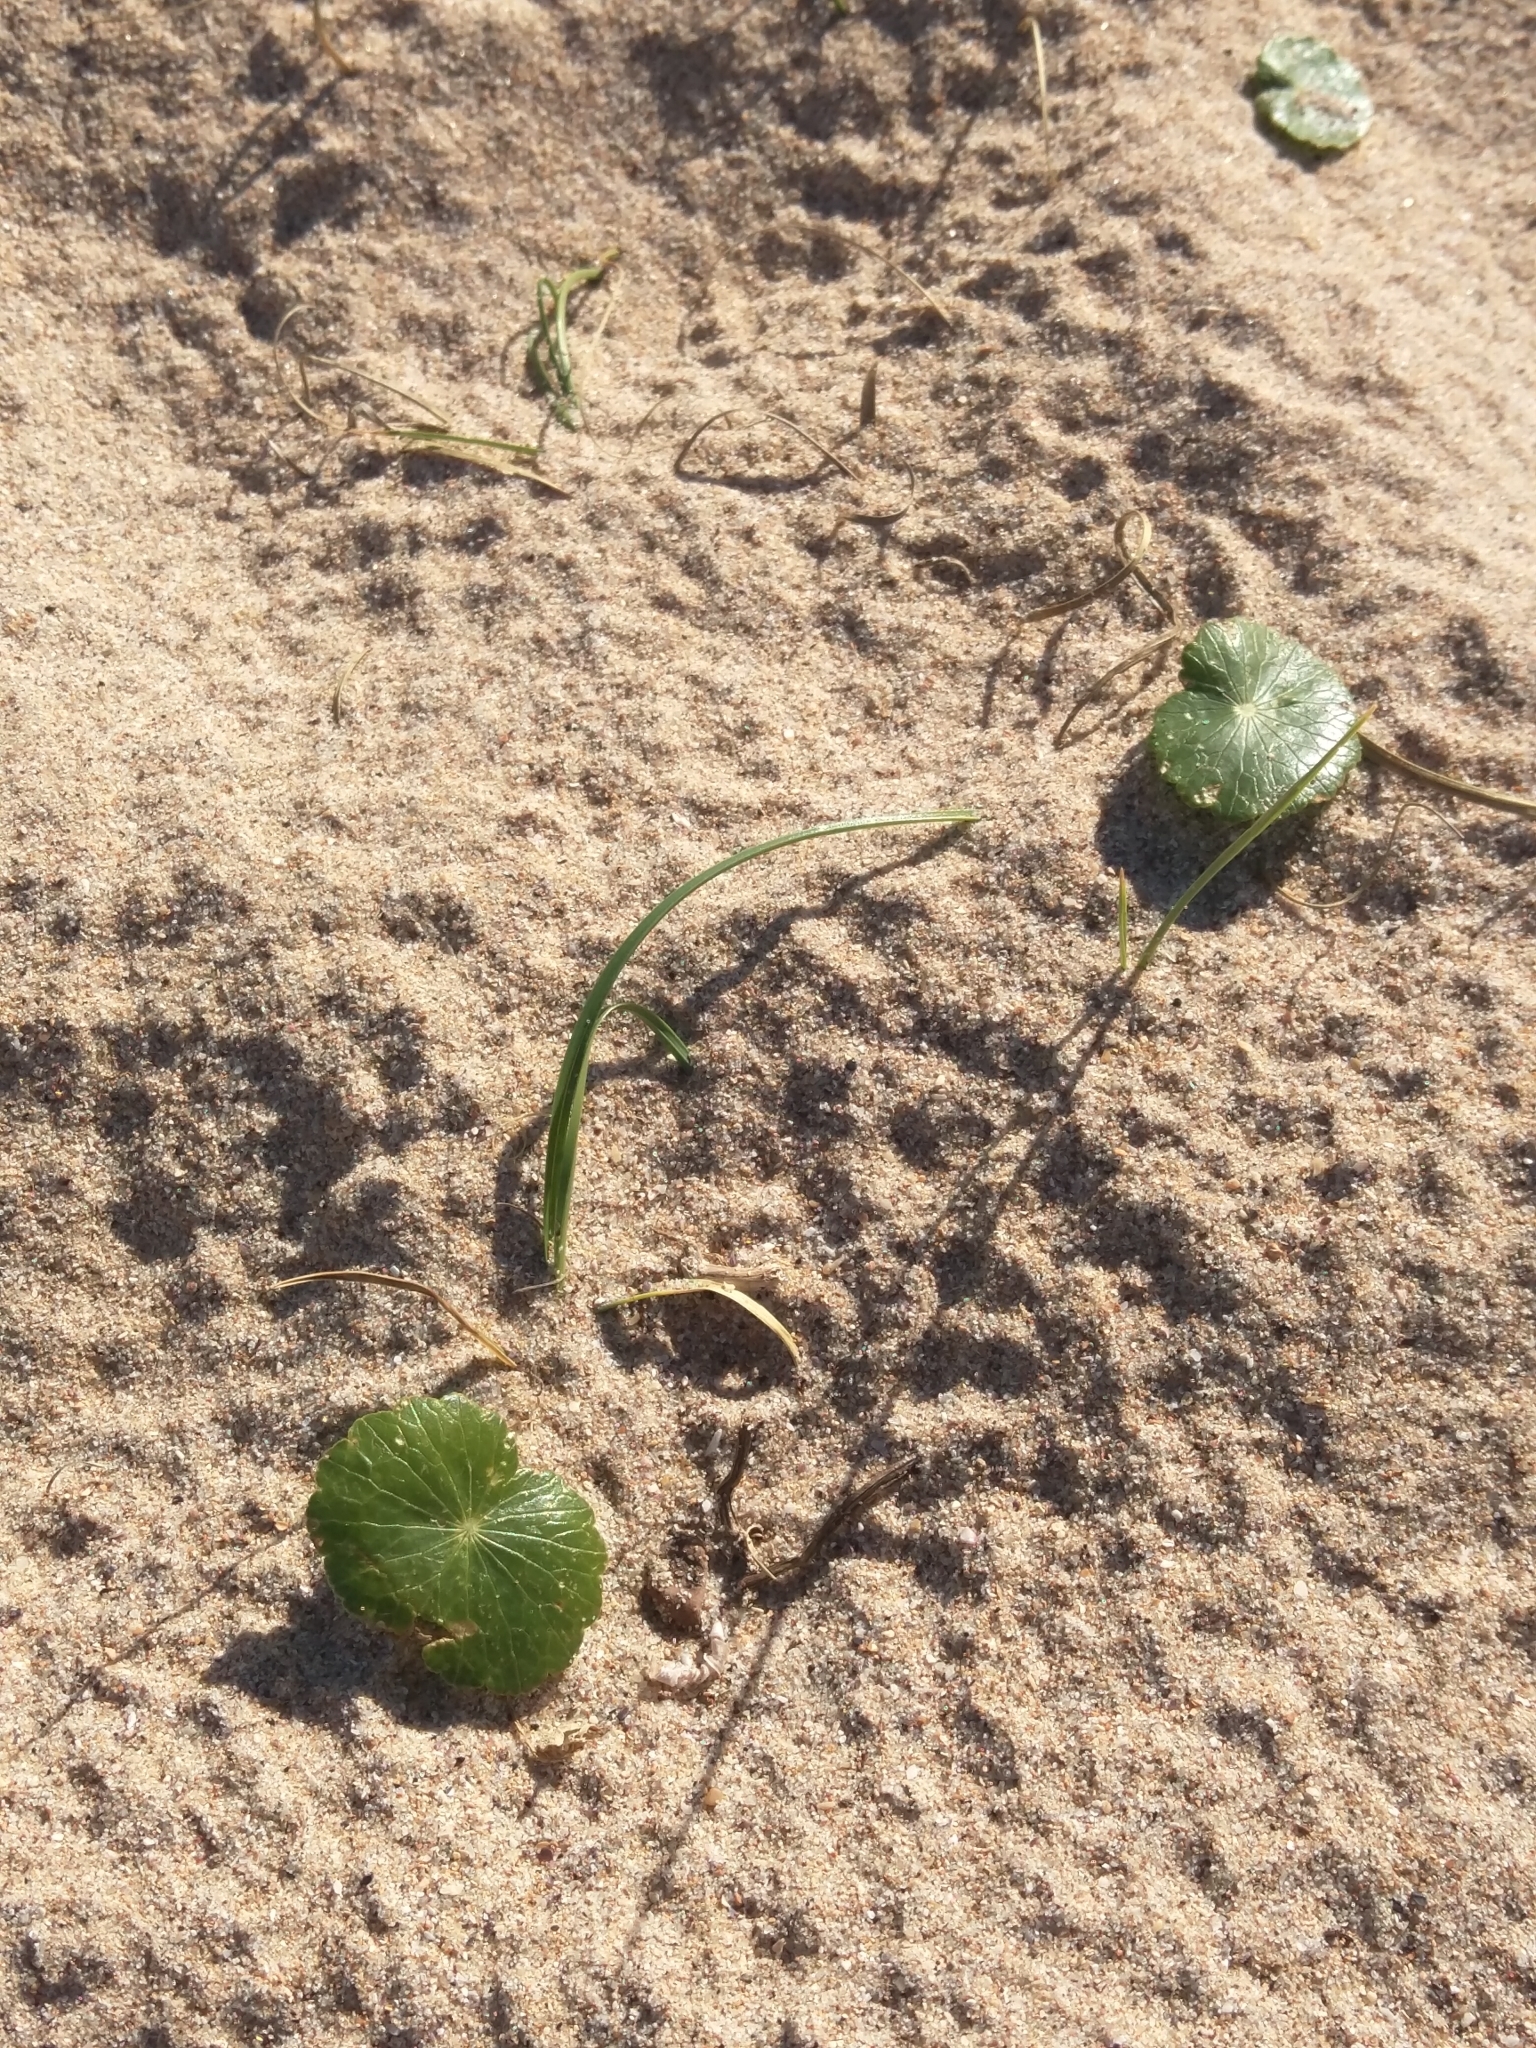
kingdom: Plantae
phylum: Tracheophyta
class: Magnoliopsida
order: Apiales
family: Araliaceae
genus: Hydrocotyle
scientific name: Hydrocotyle bonariensis
